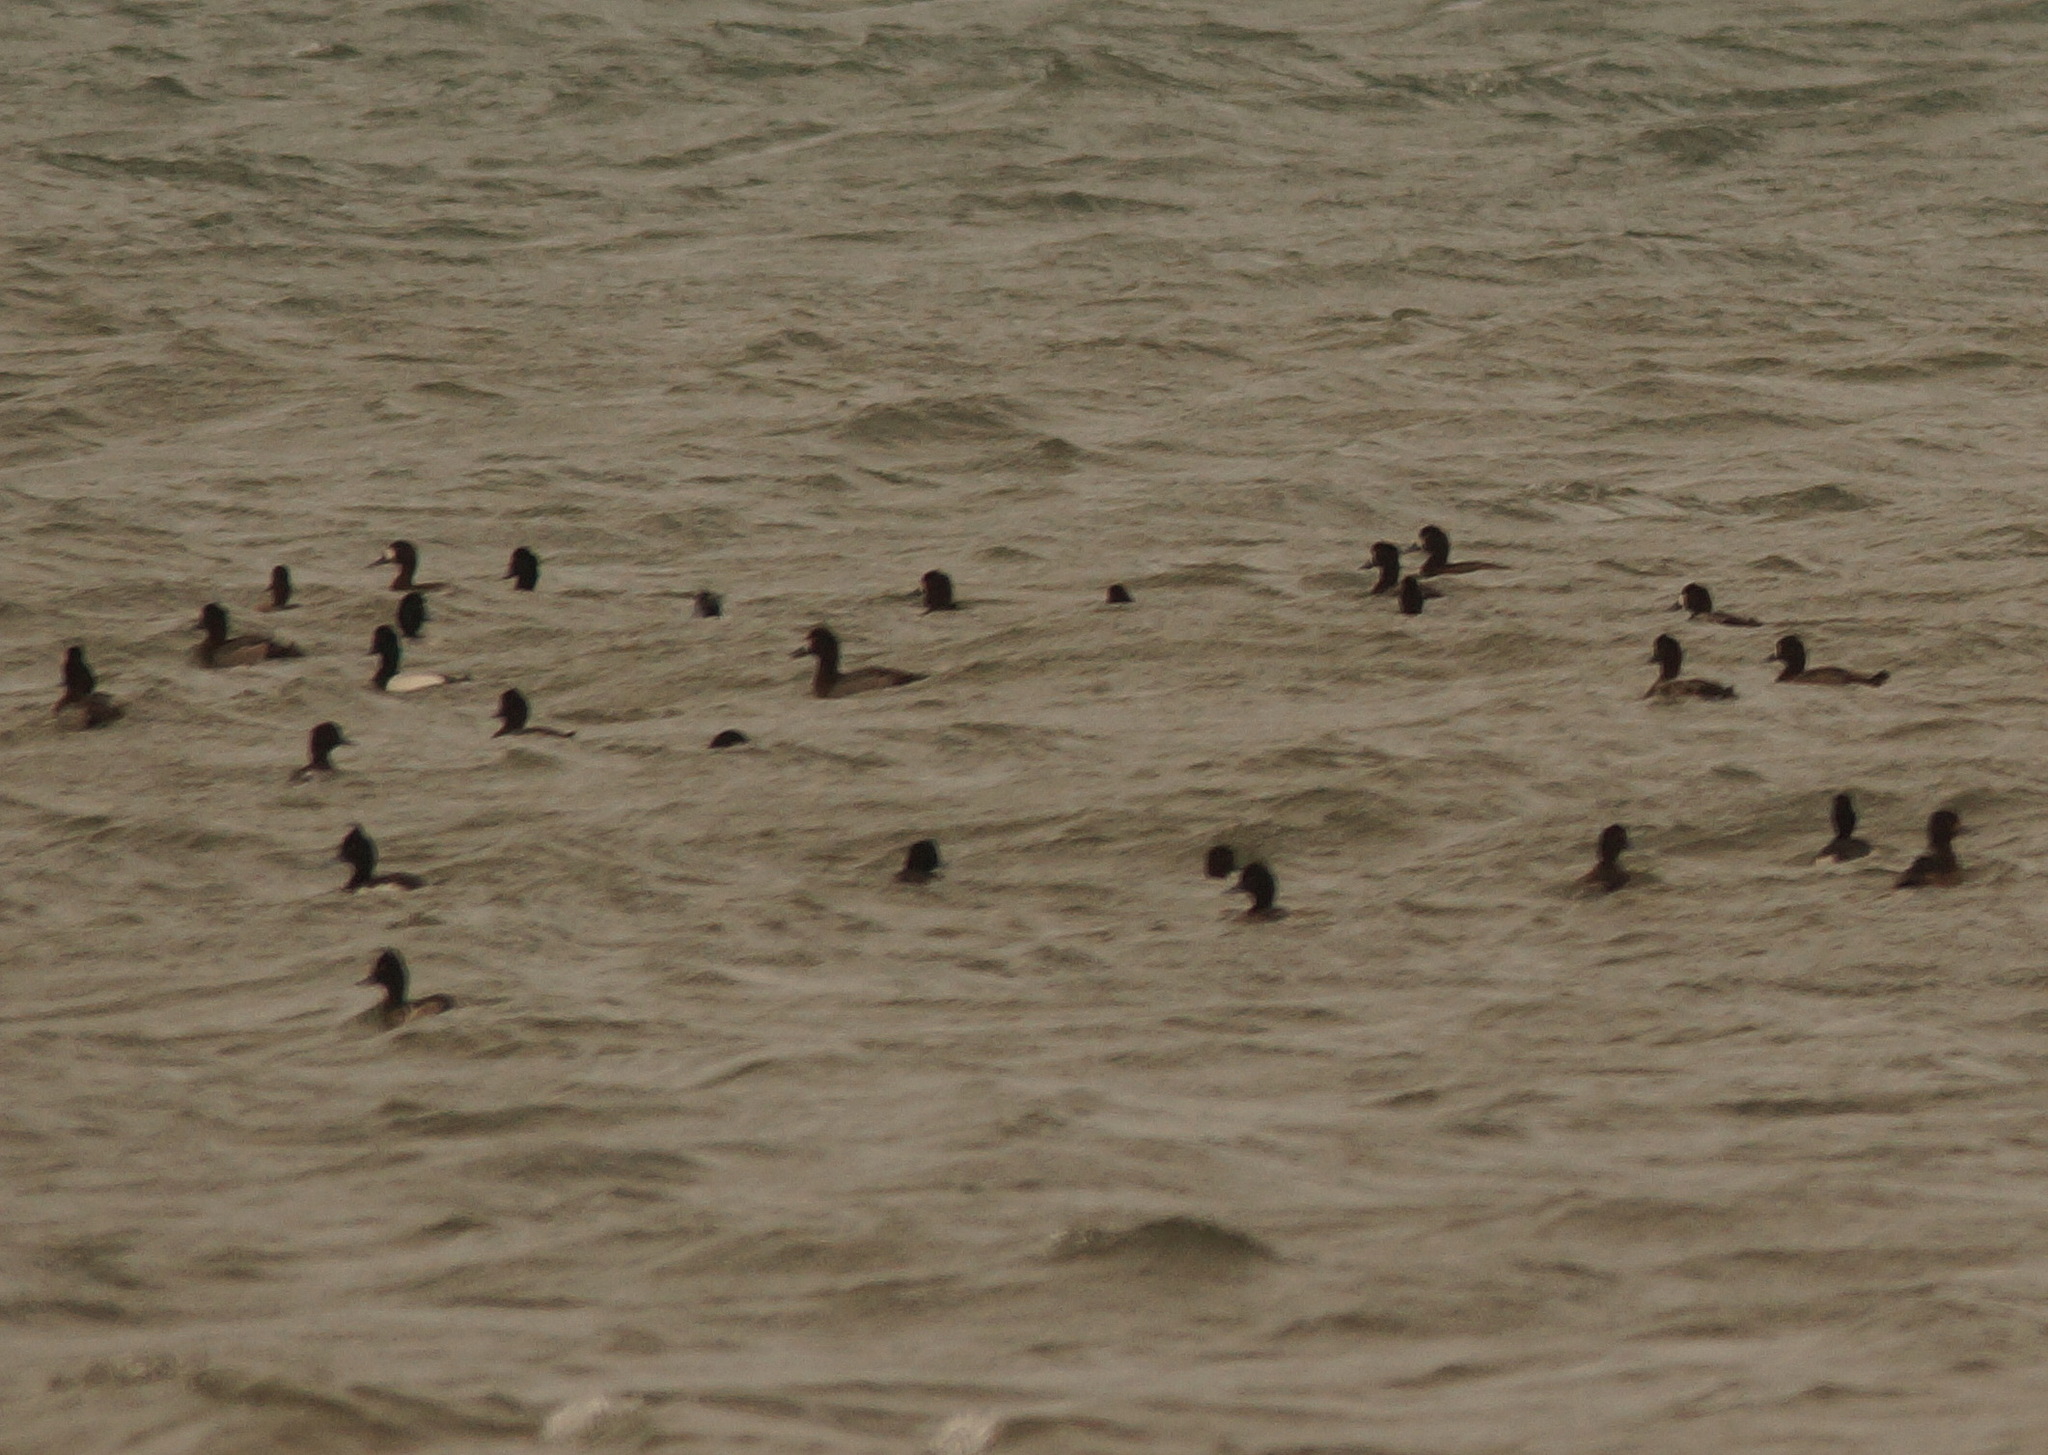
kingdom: Animalia
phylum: Chordata
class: Aves
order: Anseriformes
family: Anatidae
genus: Aythya
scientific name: Aythya marila
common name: Greater scaup
